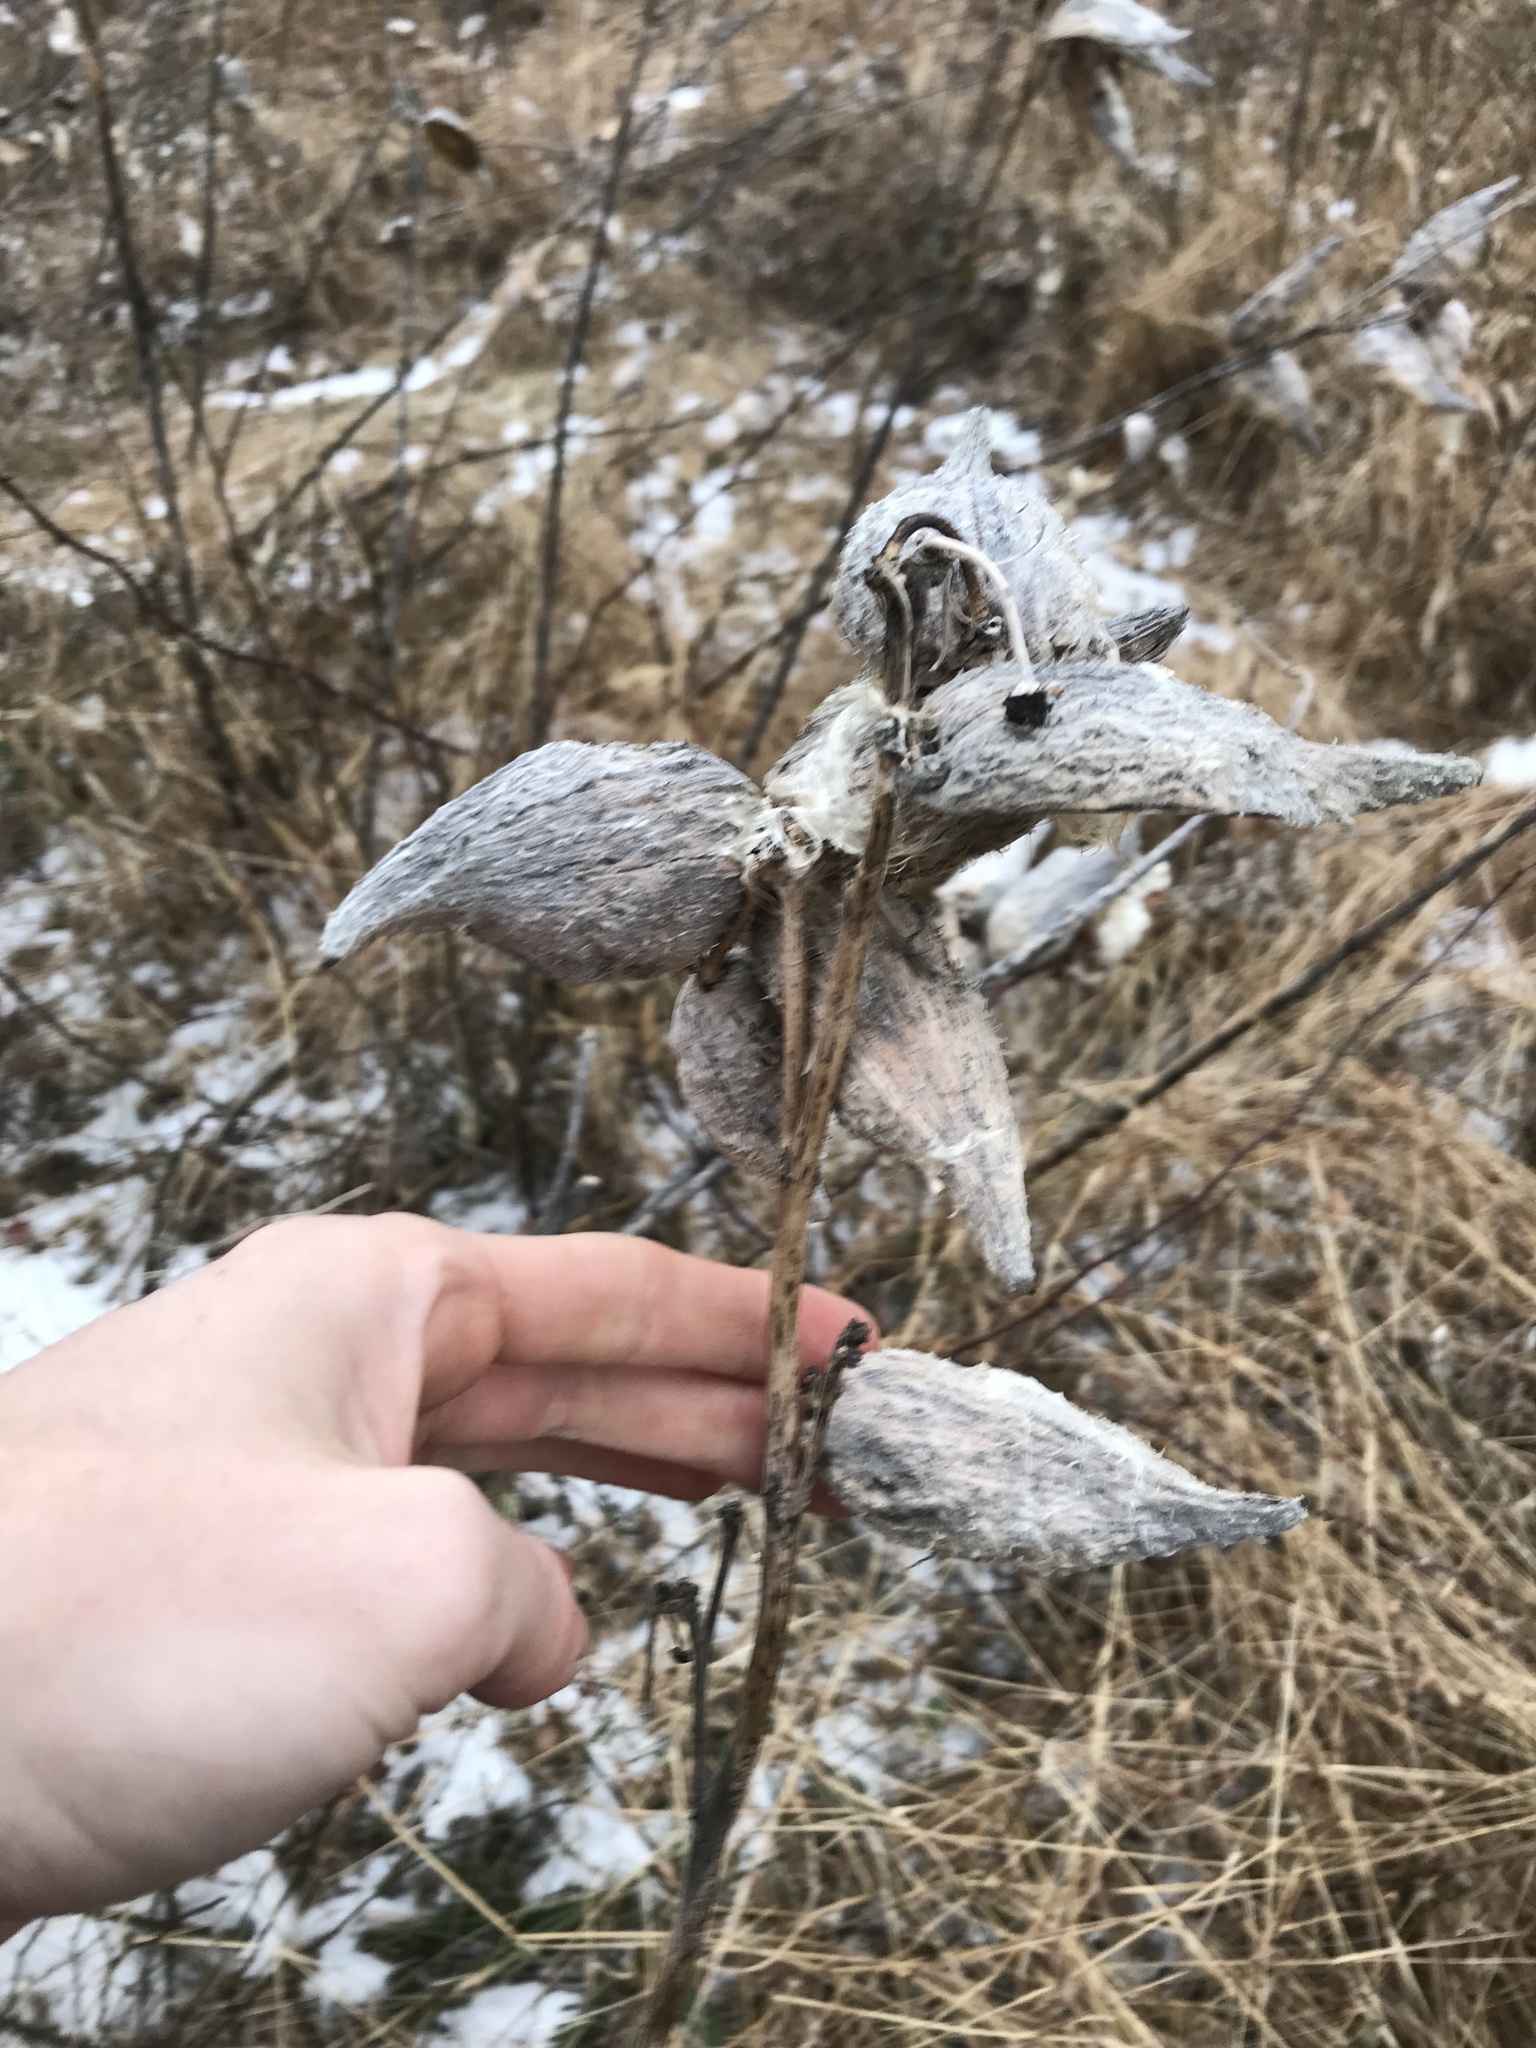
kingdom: Plantae
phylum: Tracheophyta
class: Magnoliopsida
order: Gentianales
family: Apocynaceae
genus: Asclepias
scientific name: Asclepias syriaca
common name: Common milkweed
